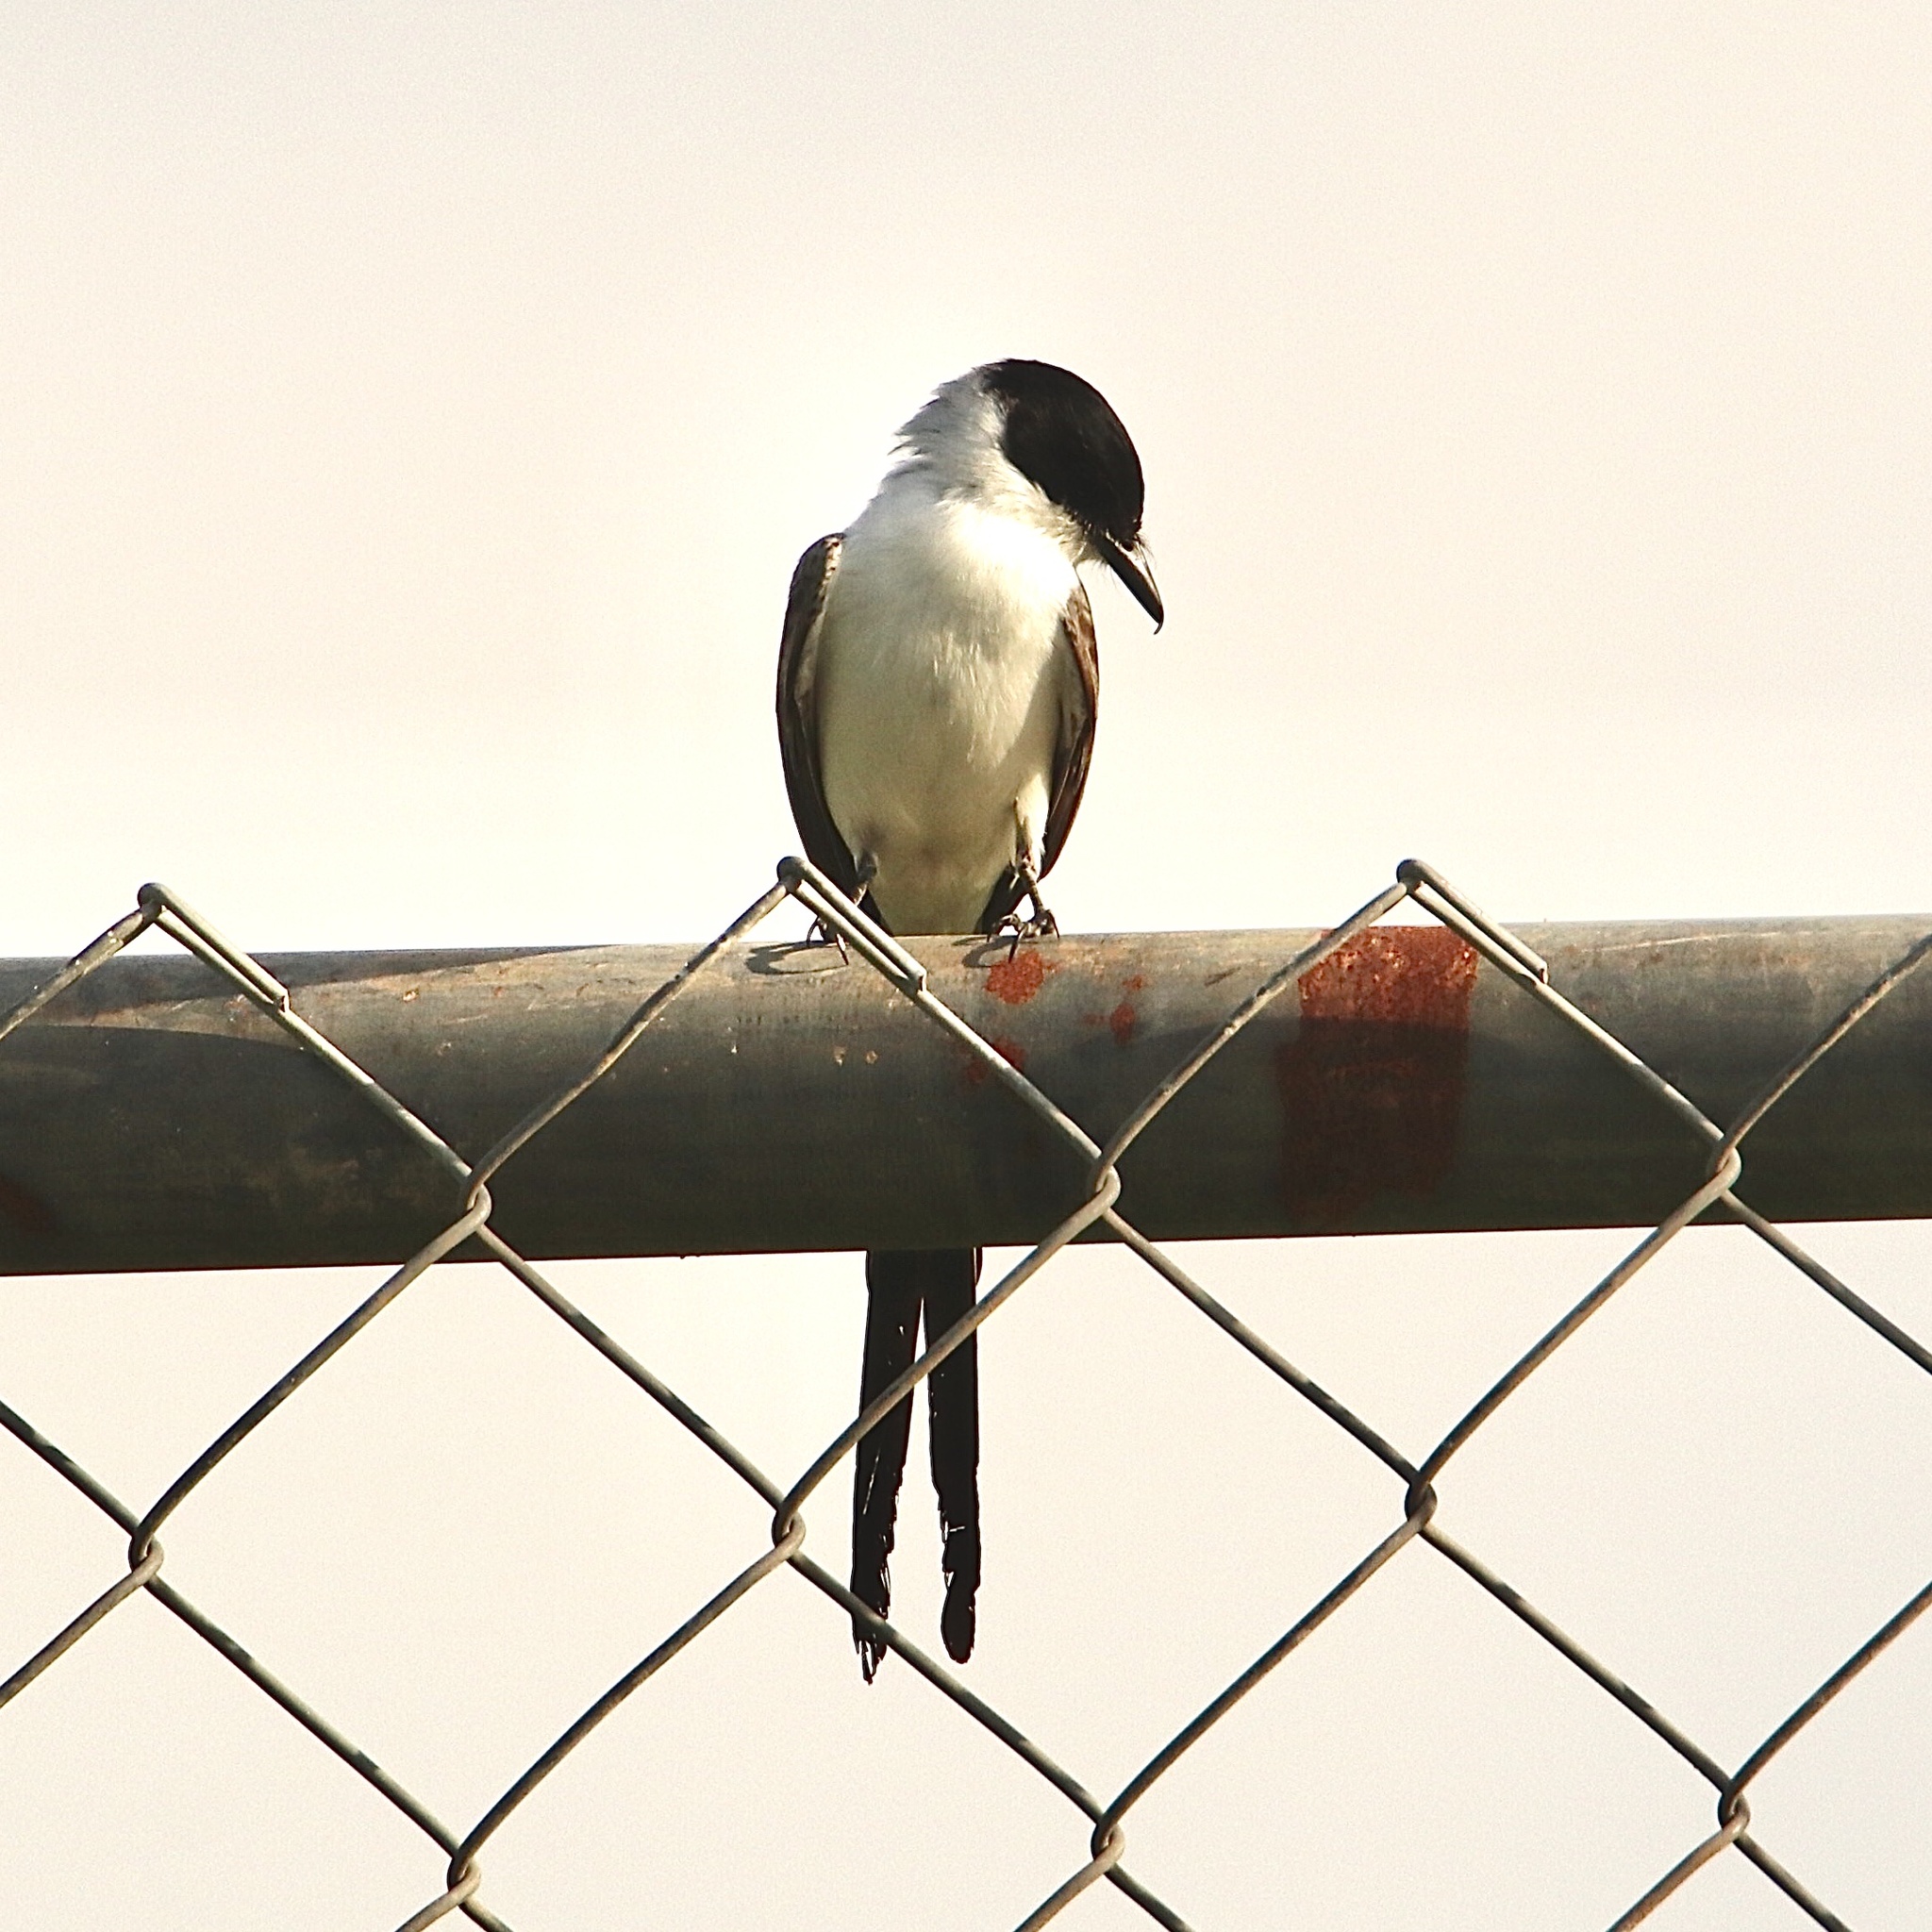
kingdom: Animalia
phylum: Chordata
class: Aves
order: Passeriformes
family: Tyrannidae
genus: Tyrannus
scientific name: Tyrannus savana
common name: Fork-tailed flycatcher
